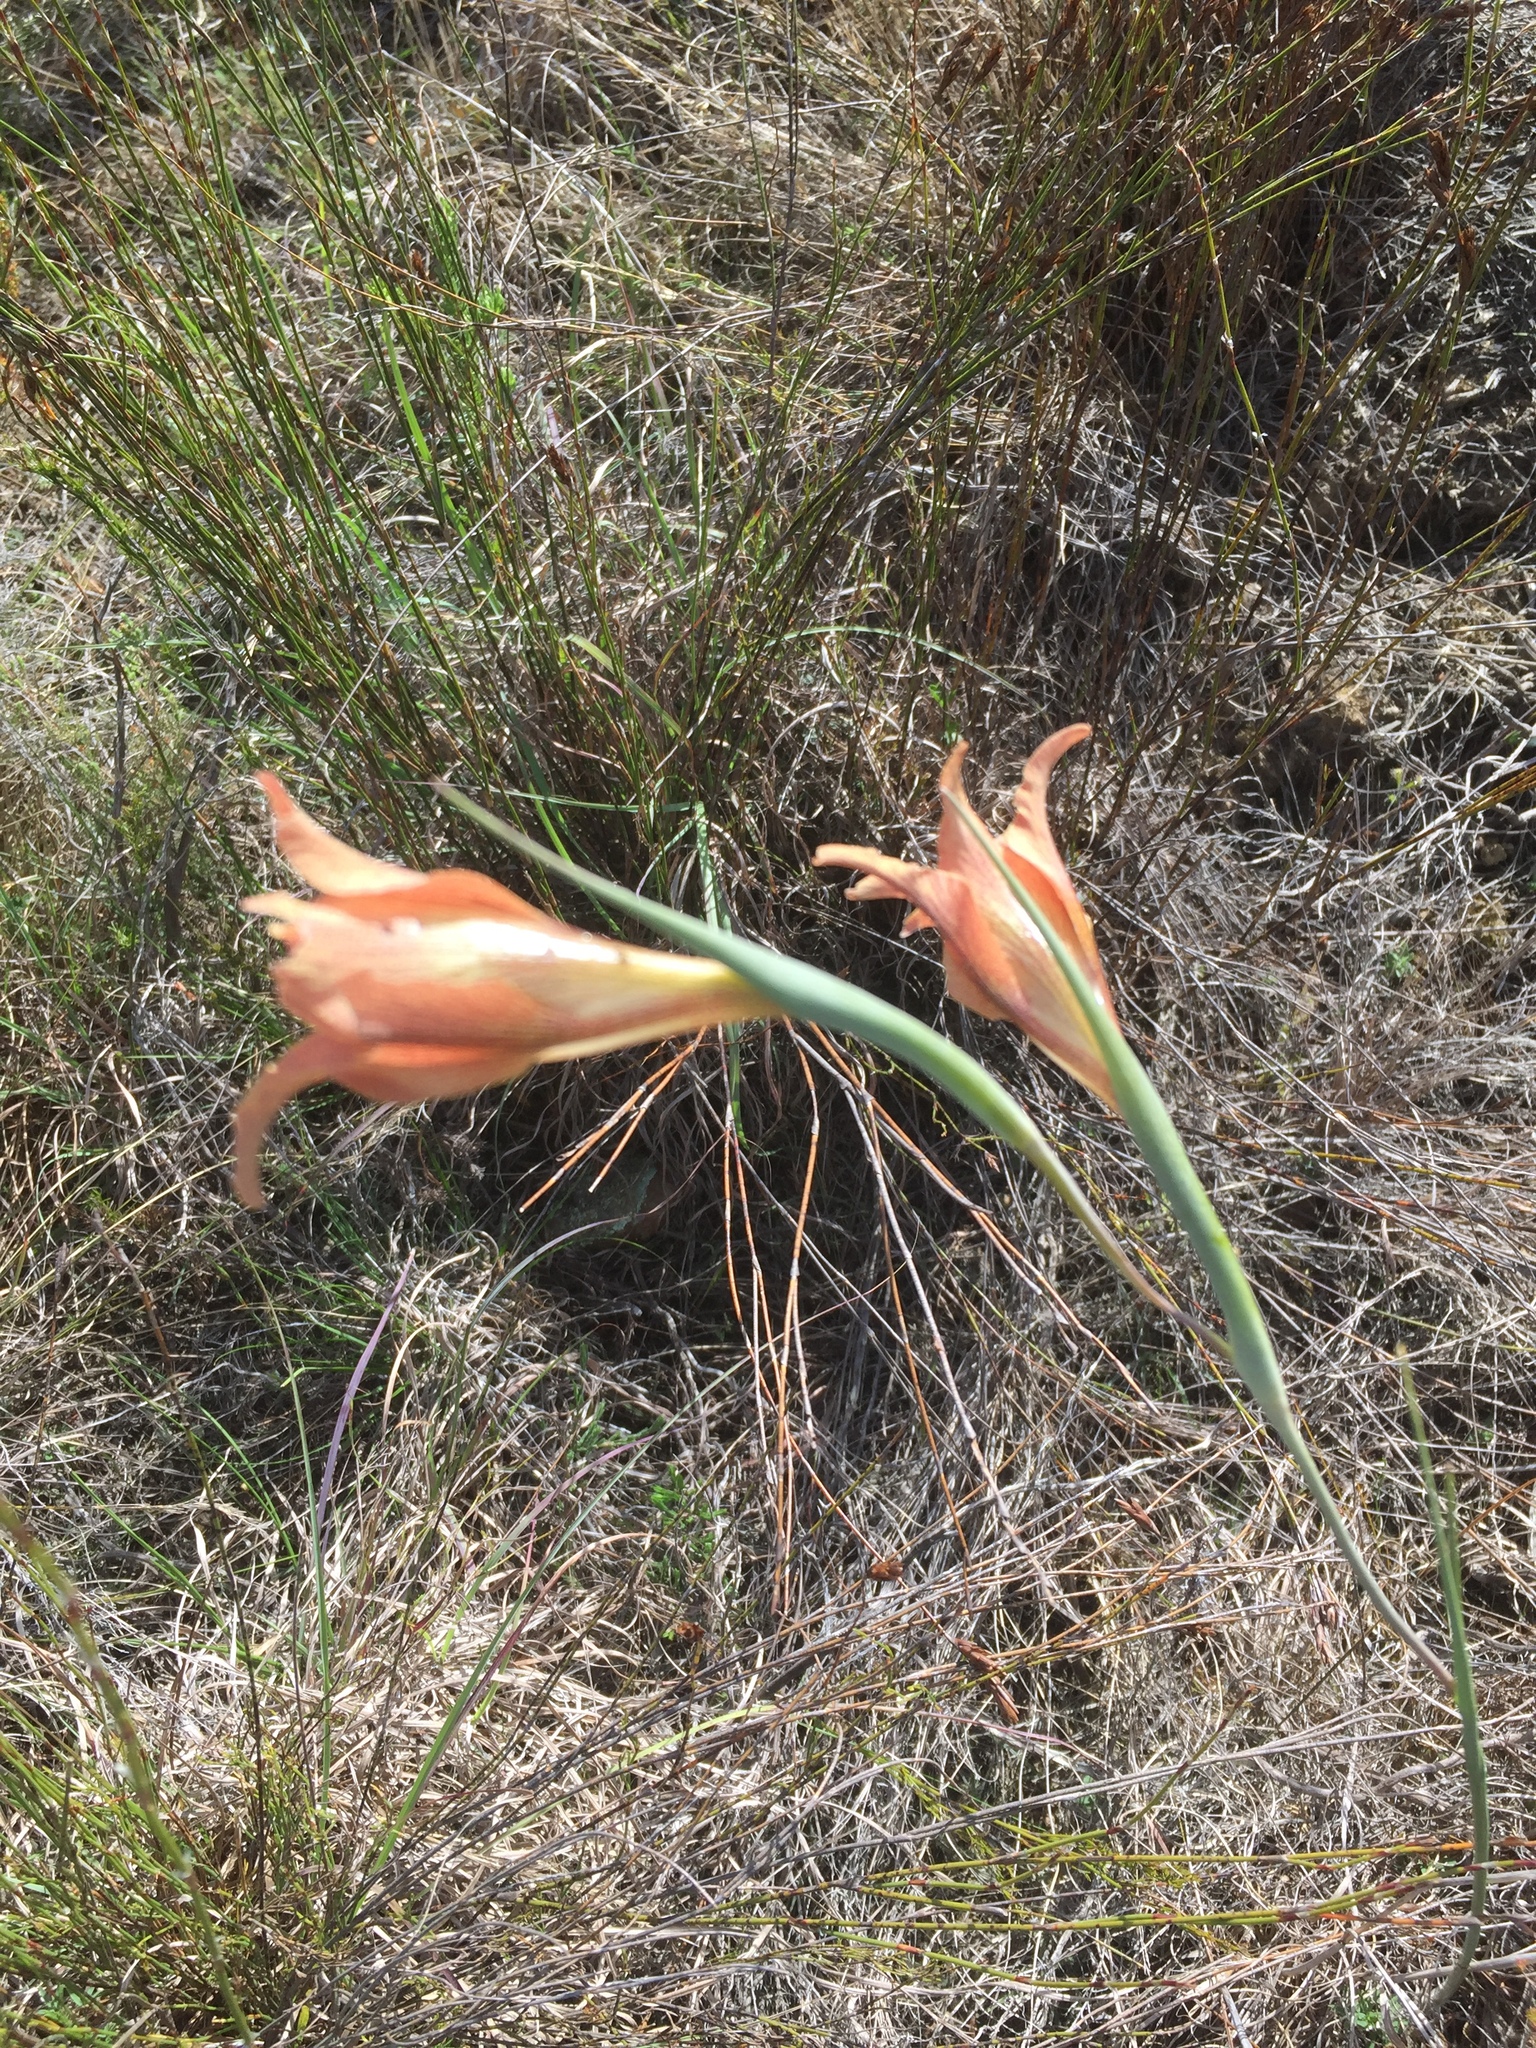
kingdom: Plantae
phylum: Tracheophyta
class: Liliopsida
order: Asparagales
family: Iridaceae
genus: Gladiolus
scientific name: Gladiolus liliaceus
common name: Large brown afrikaner
